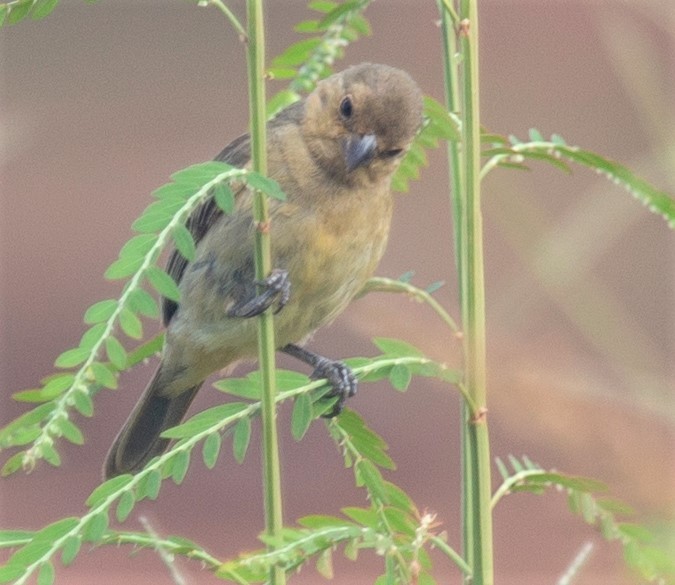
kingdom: Animalia
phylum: Chordata
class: Aves
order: Passeriformes
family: Thraupidae
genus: Sporophila
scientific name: Sporophila castaneiventris
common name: Chestnut-bellied seedeater
